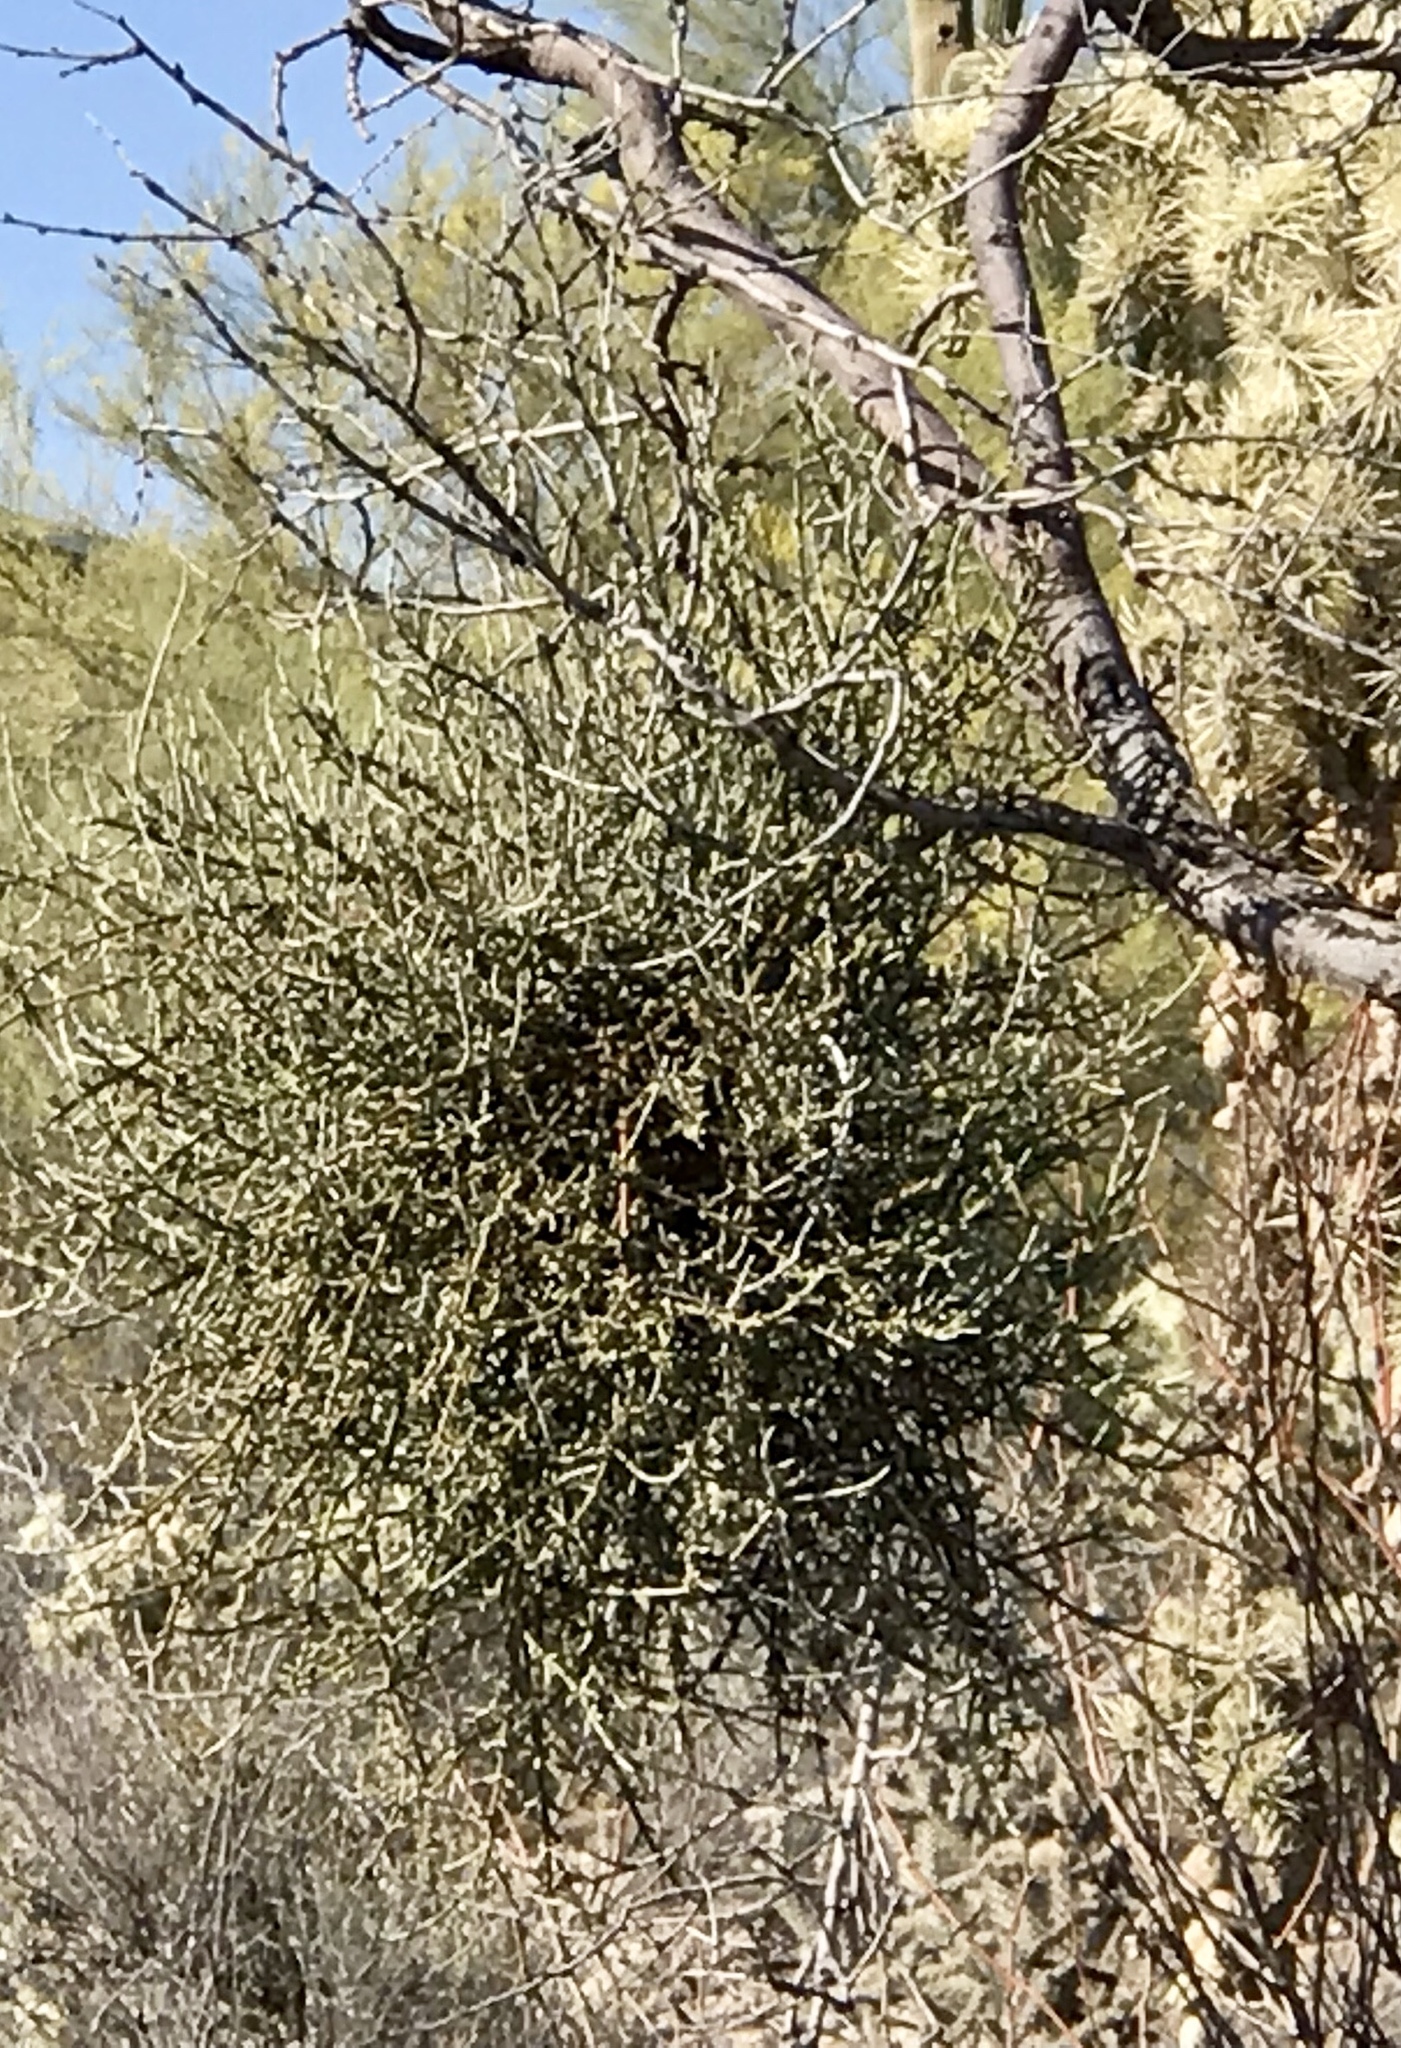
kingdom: Plantae
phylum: Tracheophyta
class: Magnoliopsida
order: Santalales
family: Viscaceae
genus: Phoradendron
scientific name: Phoradendron californicum
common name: Acacia mistletoe
